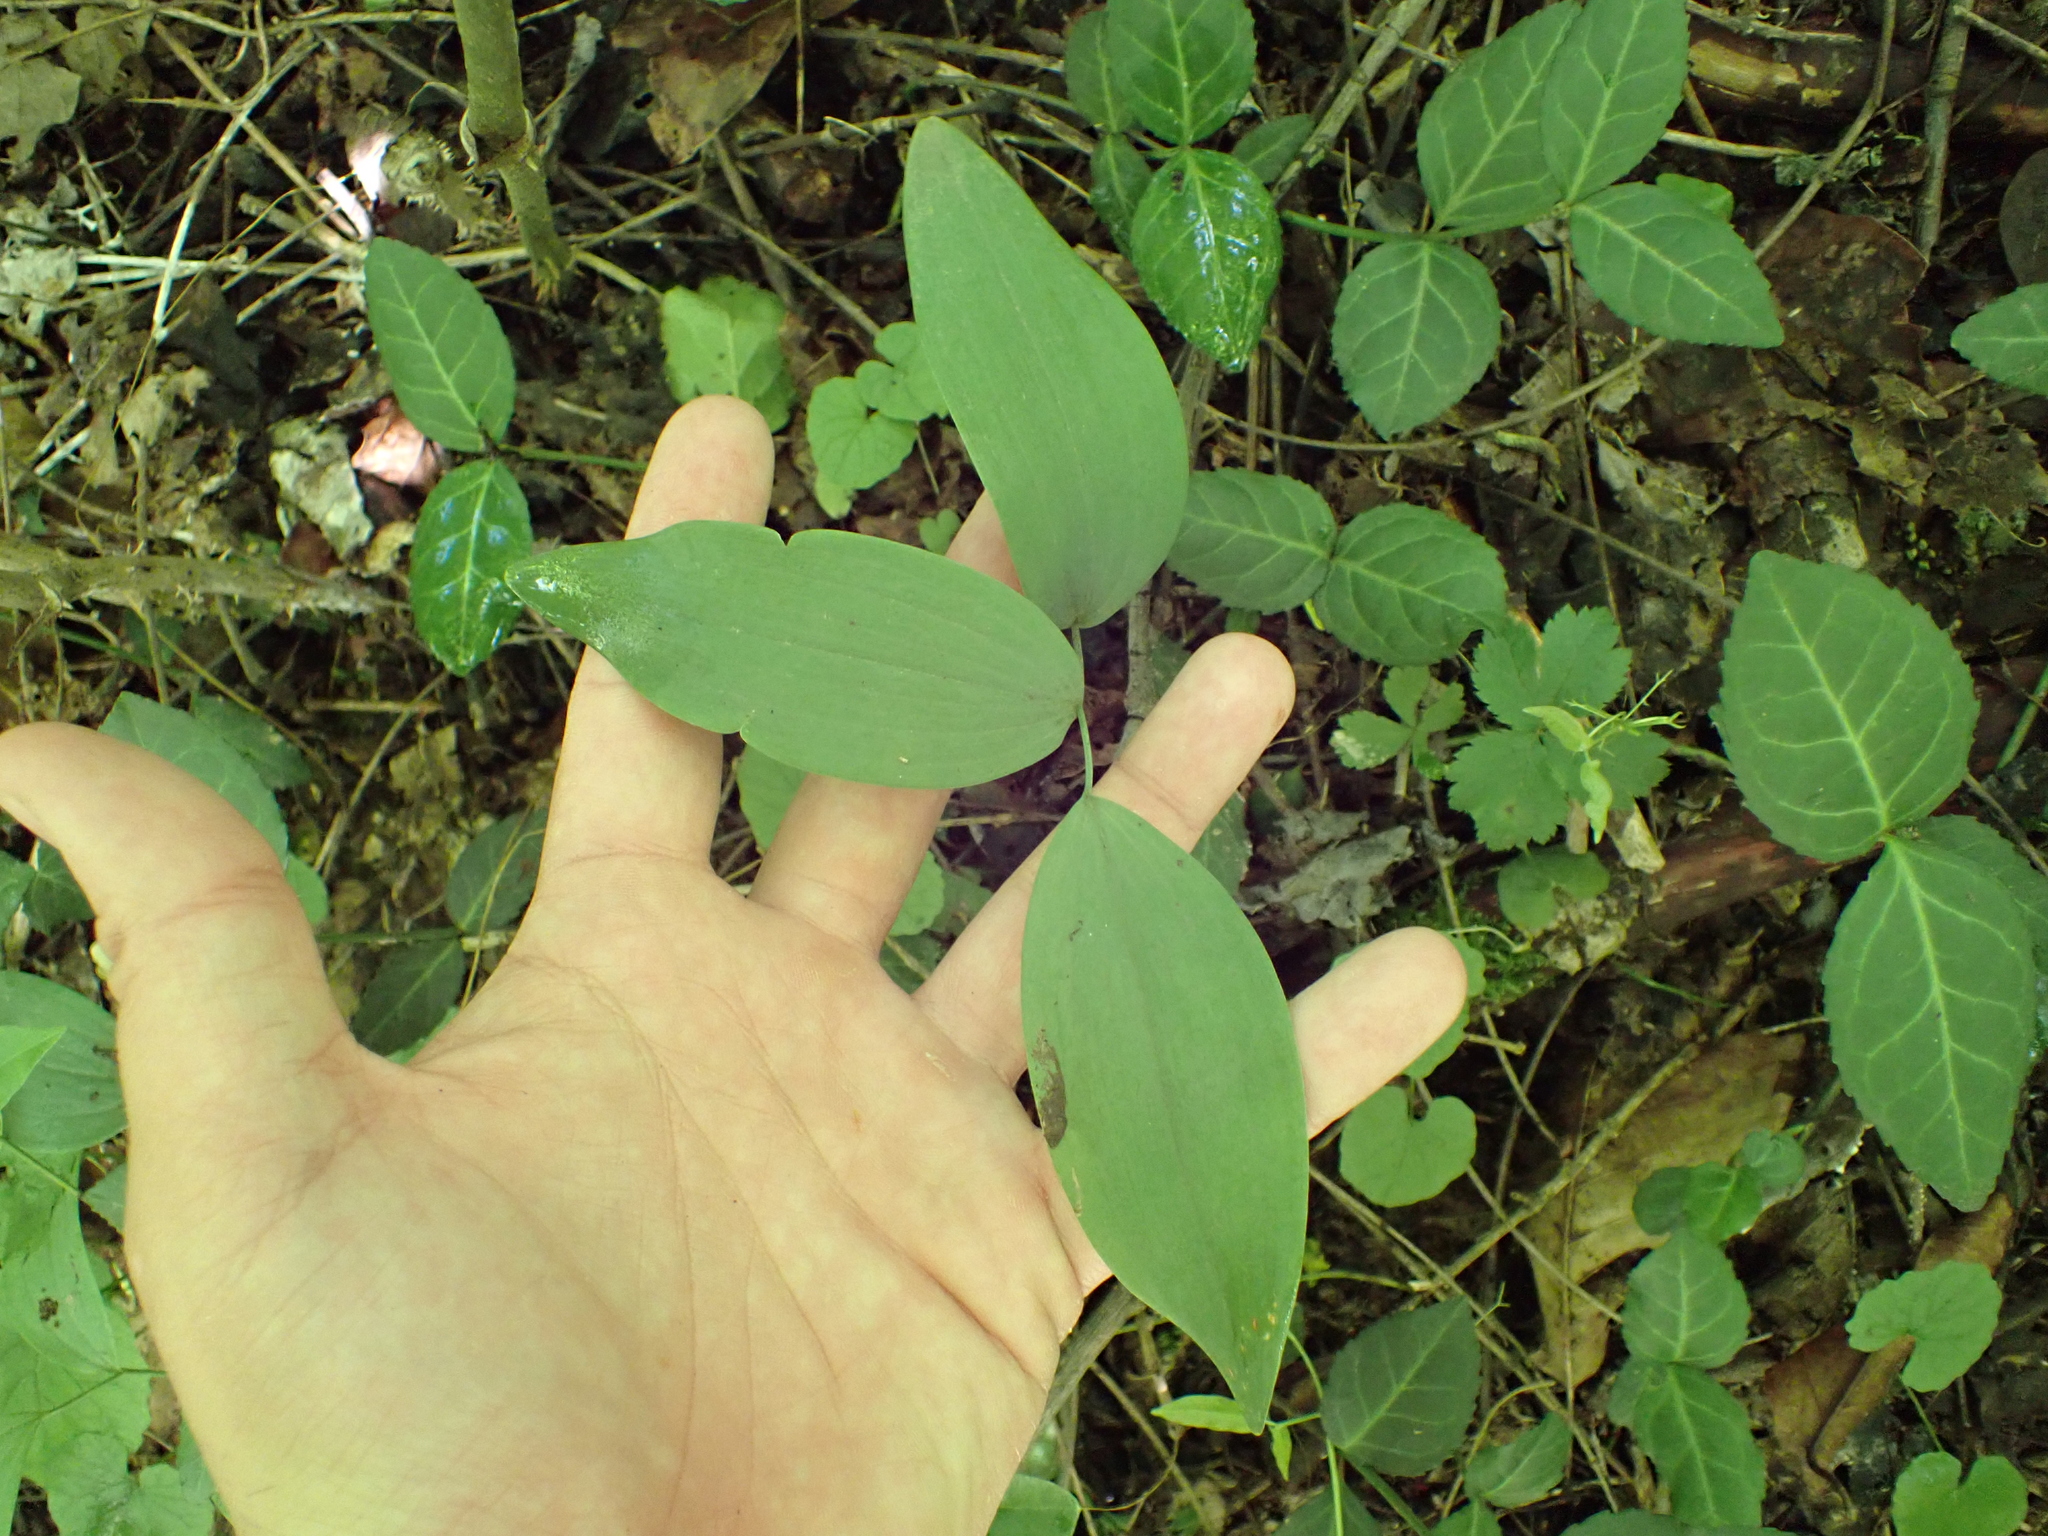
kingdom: Plantae
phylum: Tracheophyta
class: Liliopsida
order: Asparagales
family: Asparagaceae
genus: Polygonatum
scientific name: Polygonatum
